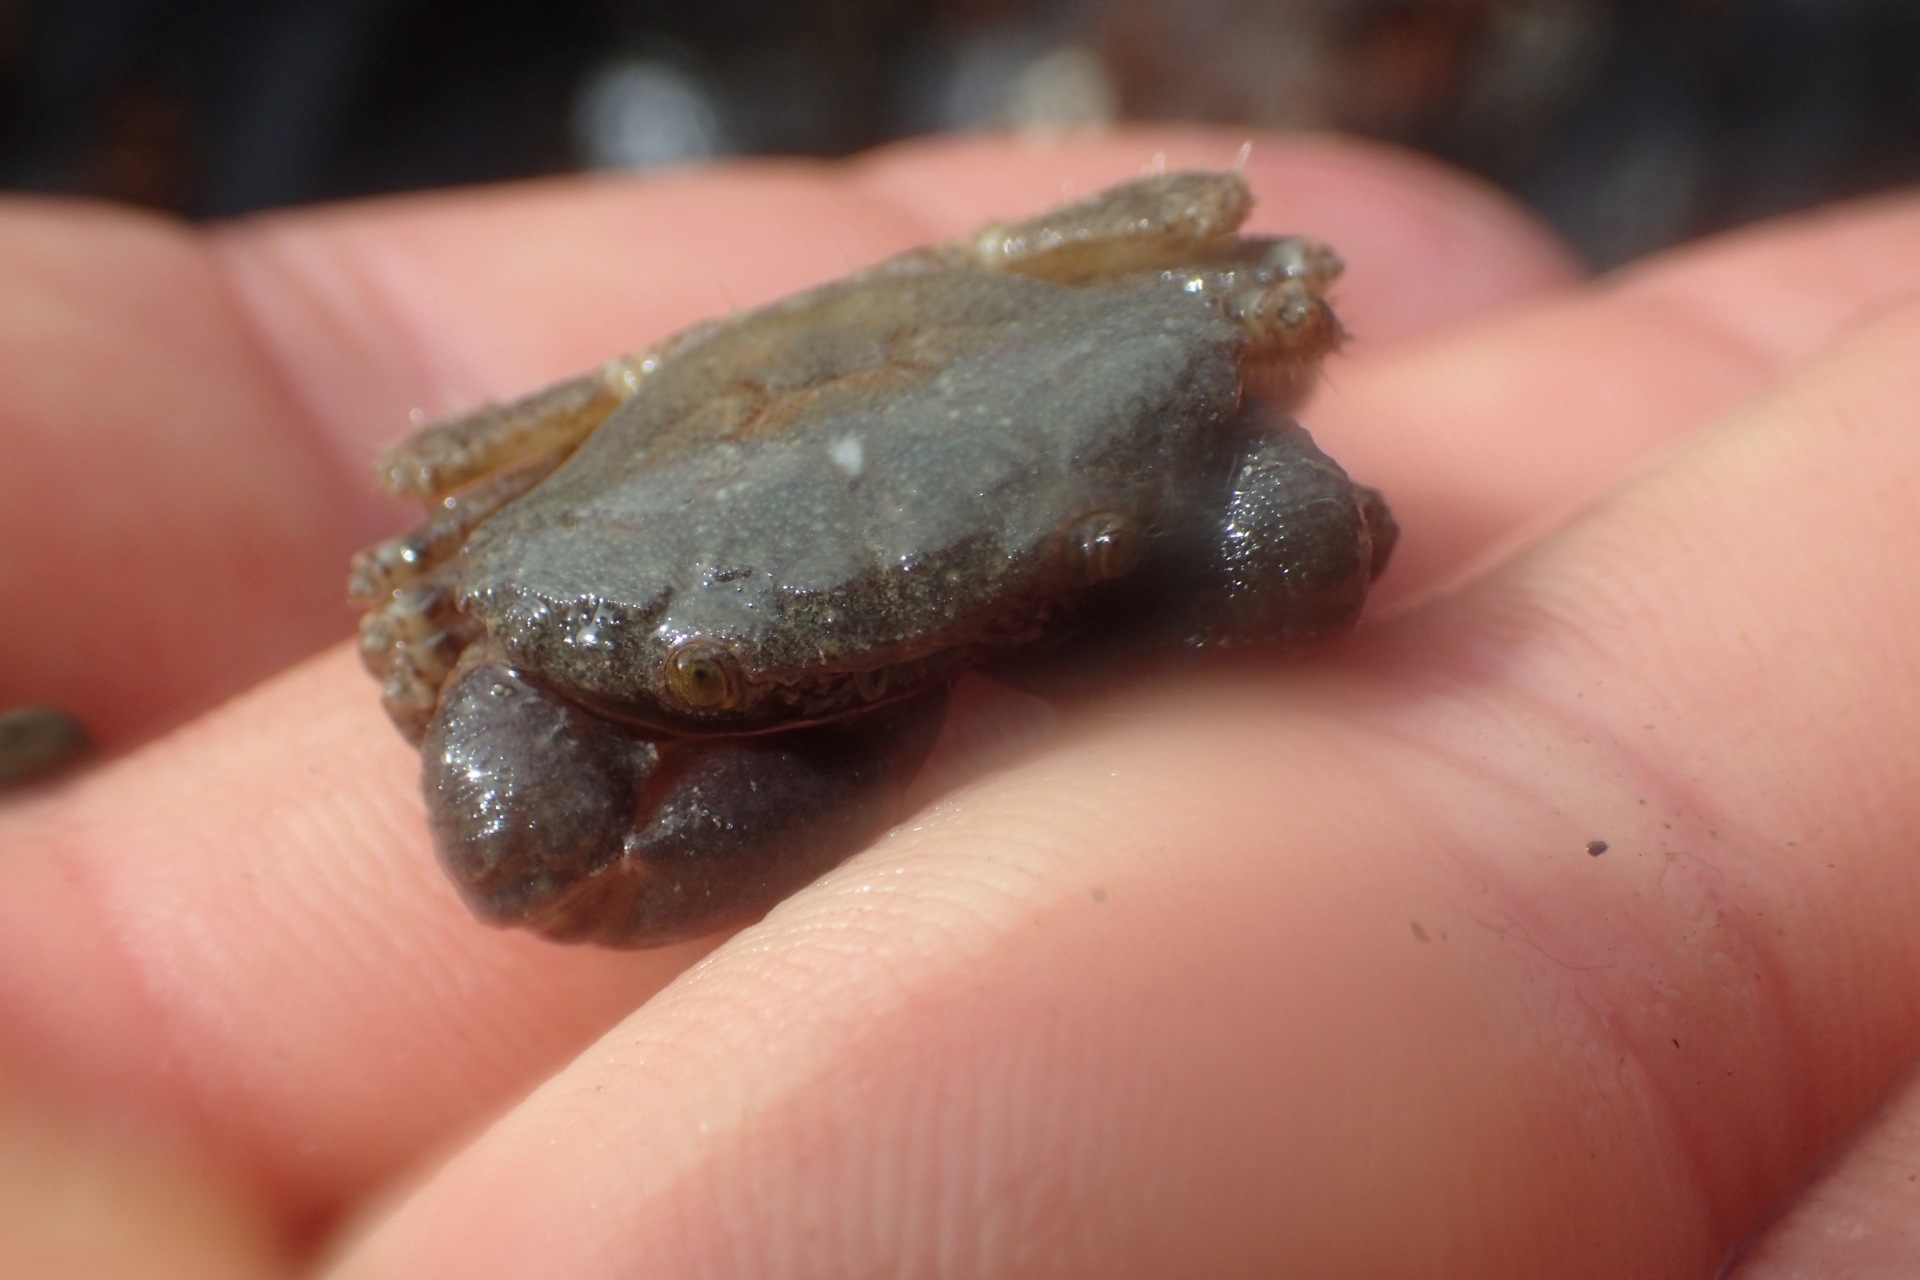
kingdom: Animalia
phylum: Arthropoda
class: Malacostraca
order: Decapoda
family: Oziidae
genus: Ozius
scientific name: Ozius deplanatus
